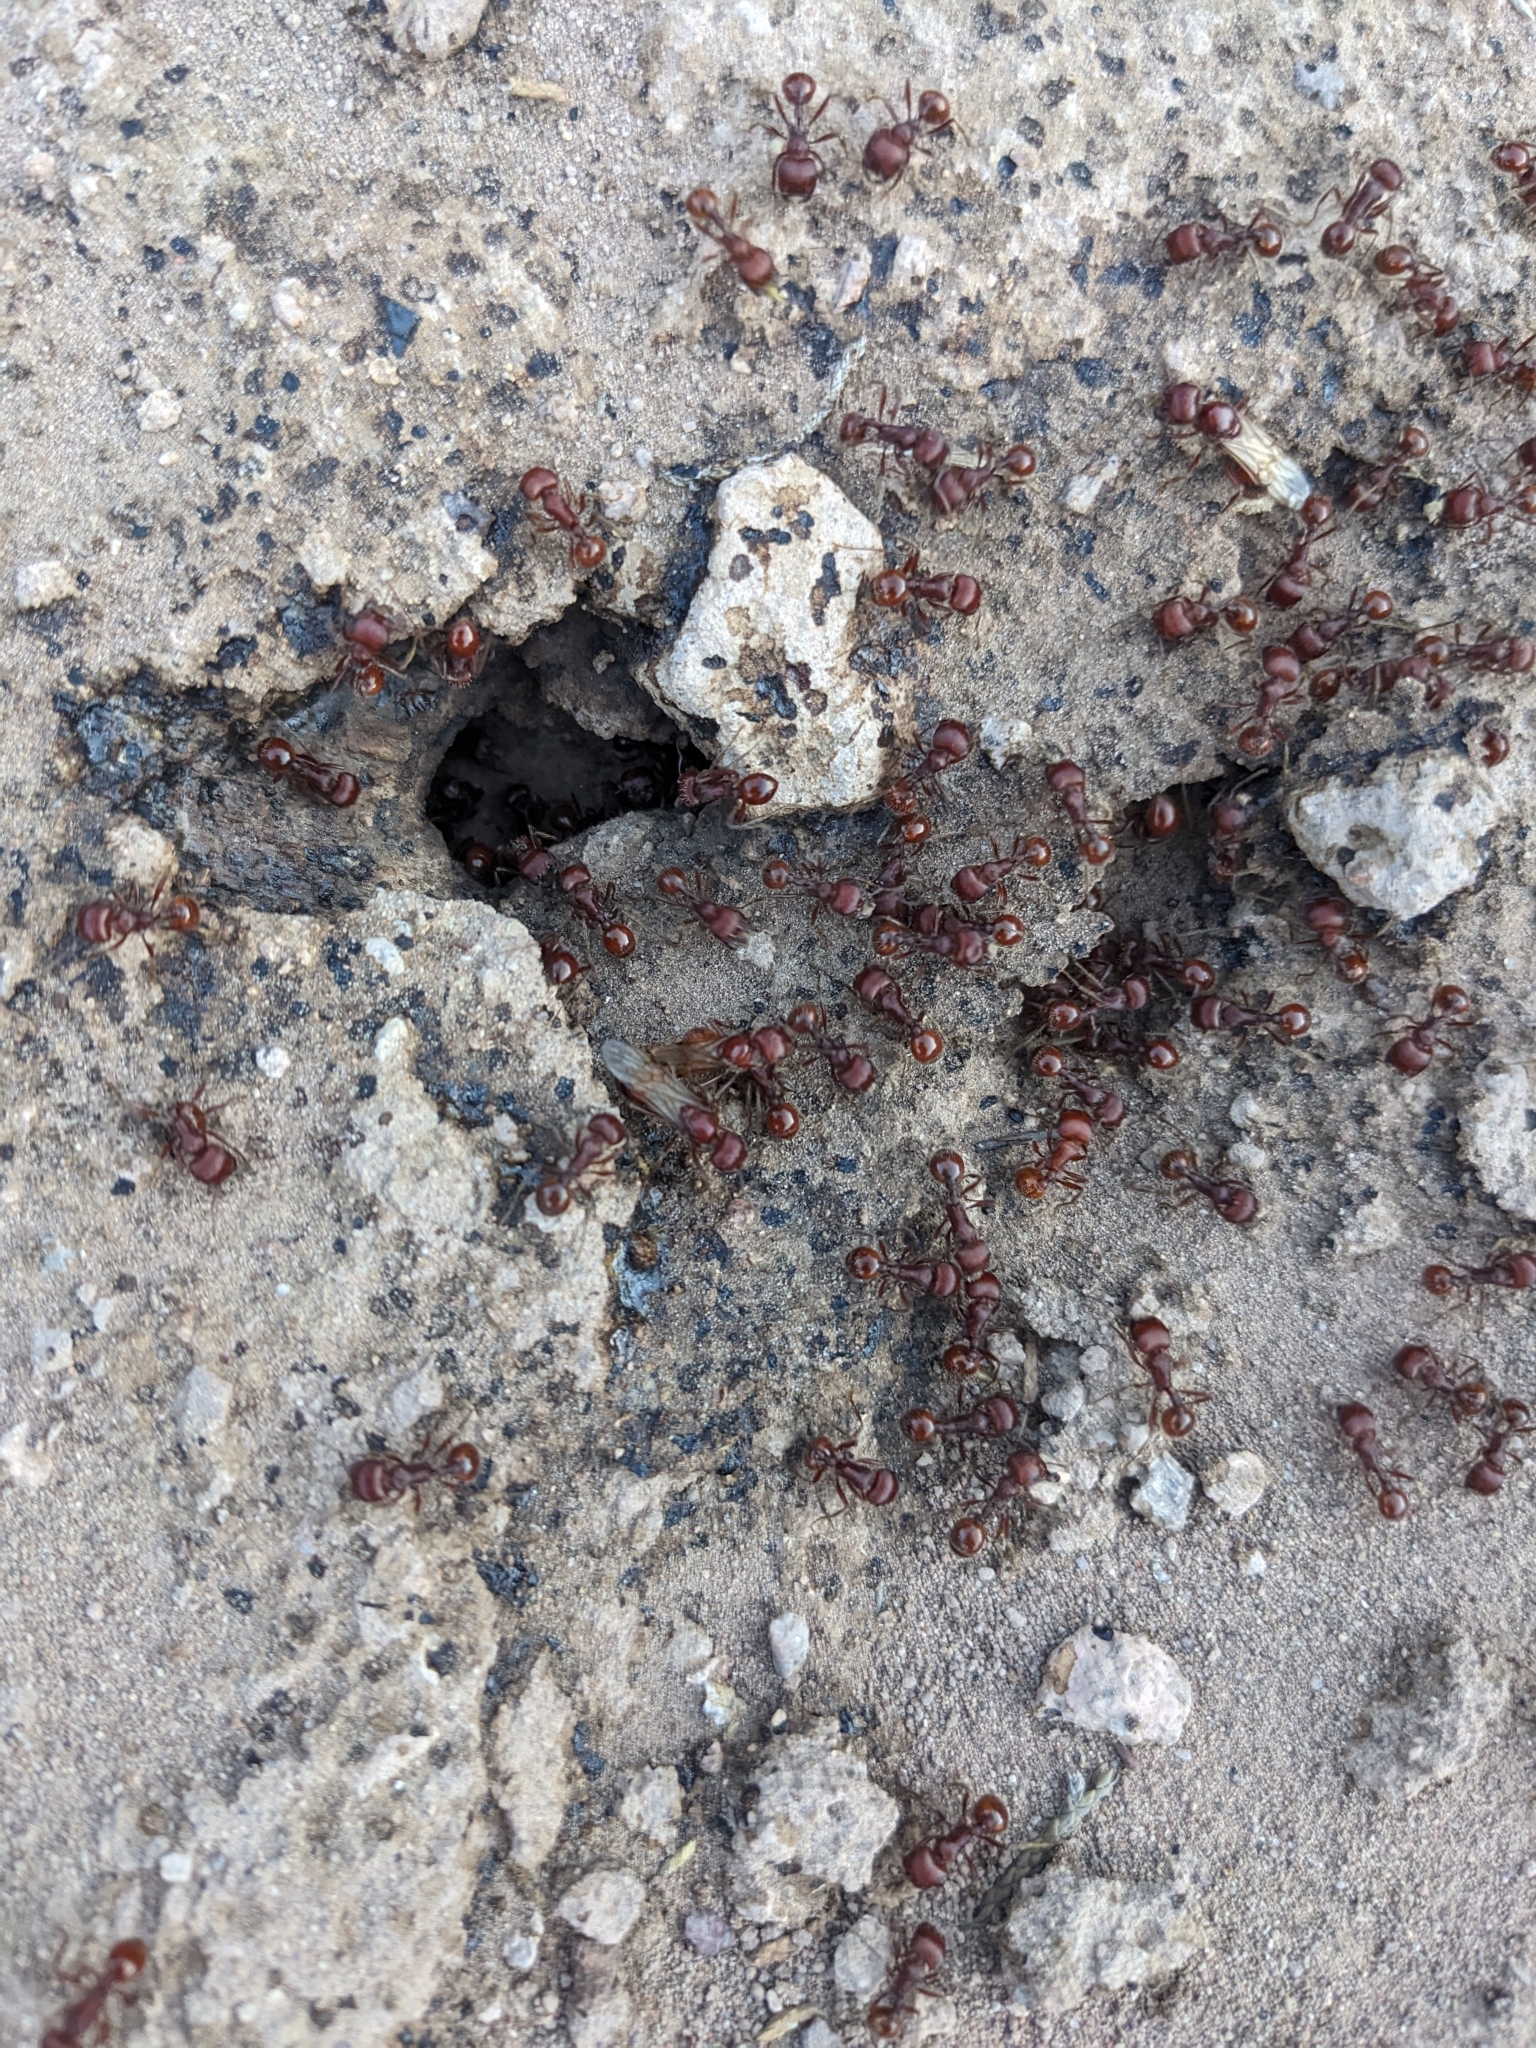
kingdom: Animalia
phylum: Arthropoda
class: Insecta
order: Hymenoptera
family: Formicidae
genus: Pogonomyrmex
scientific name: Pogonomyrmex barbatus
